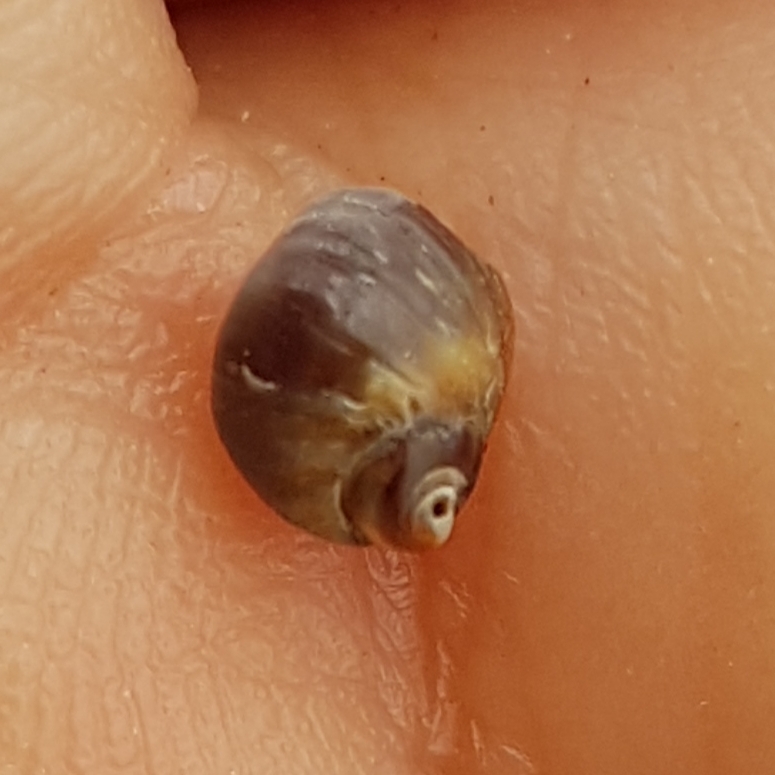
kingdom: Animalia
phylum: Mollusca
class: Gastropoda
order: Littorinimorpha
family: Littorinidae
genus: Melarhaphe
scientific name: Melarhaphe neritoides
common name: Small periwinkle
